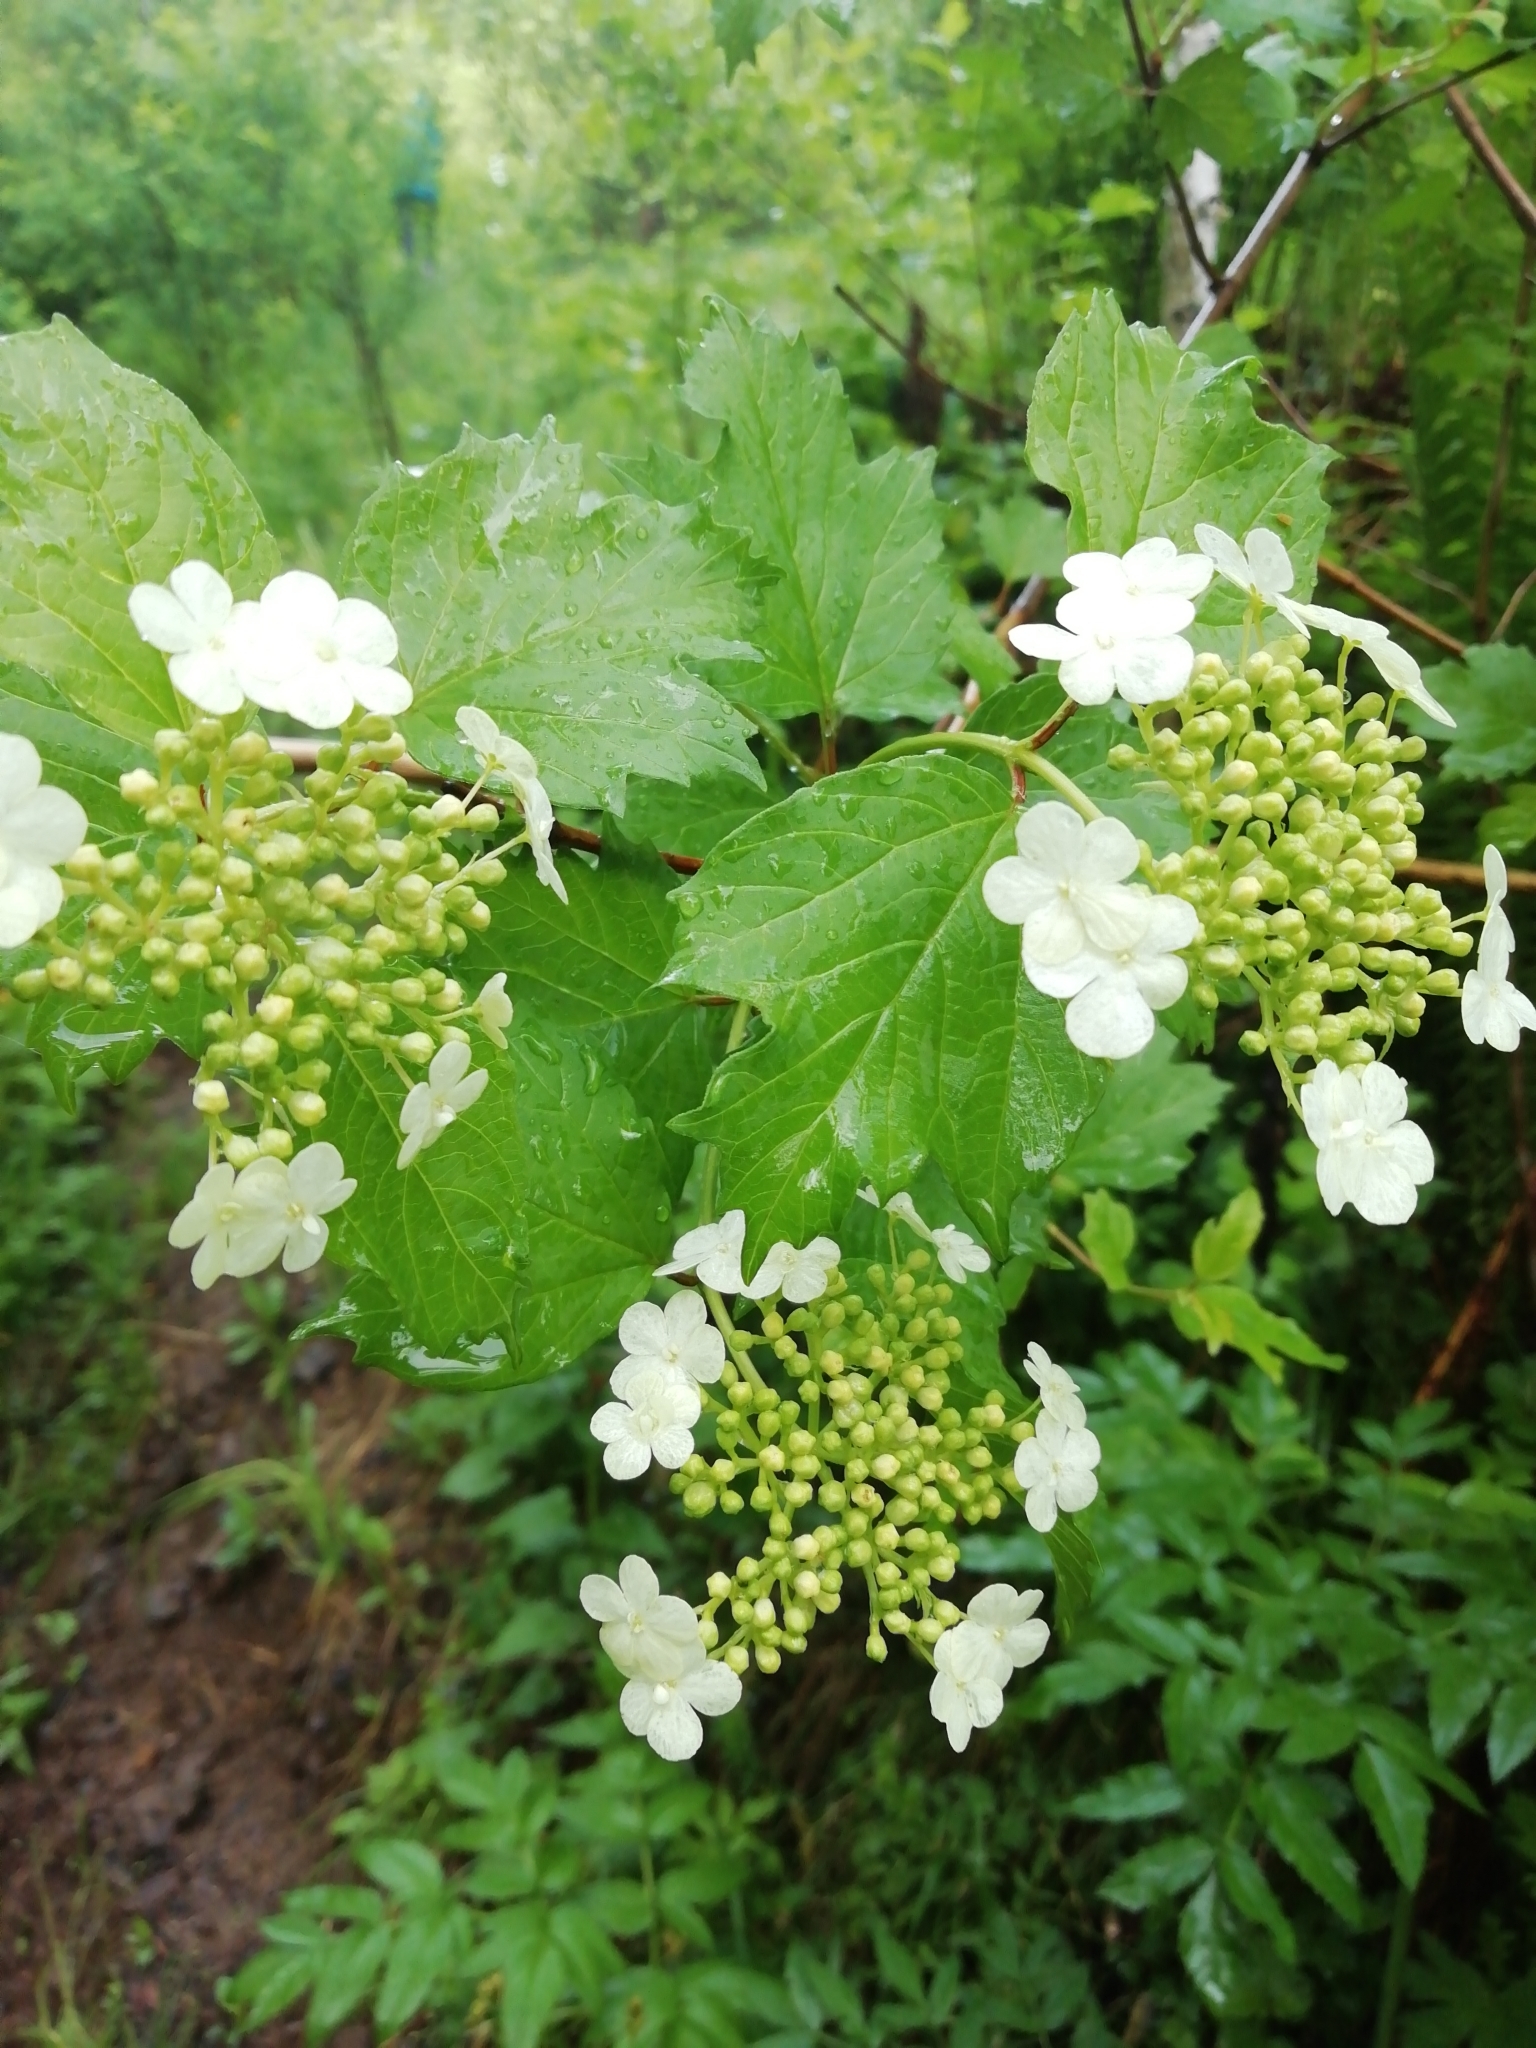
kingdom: Plantae
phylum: Tracheophyta
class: Magnoliopsida
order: Dipsacales
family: Viburnaceae
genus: Viburnum
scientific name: Viburnum opulus
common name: Guelder-rose
